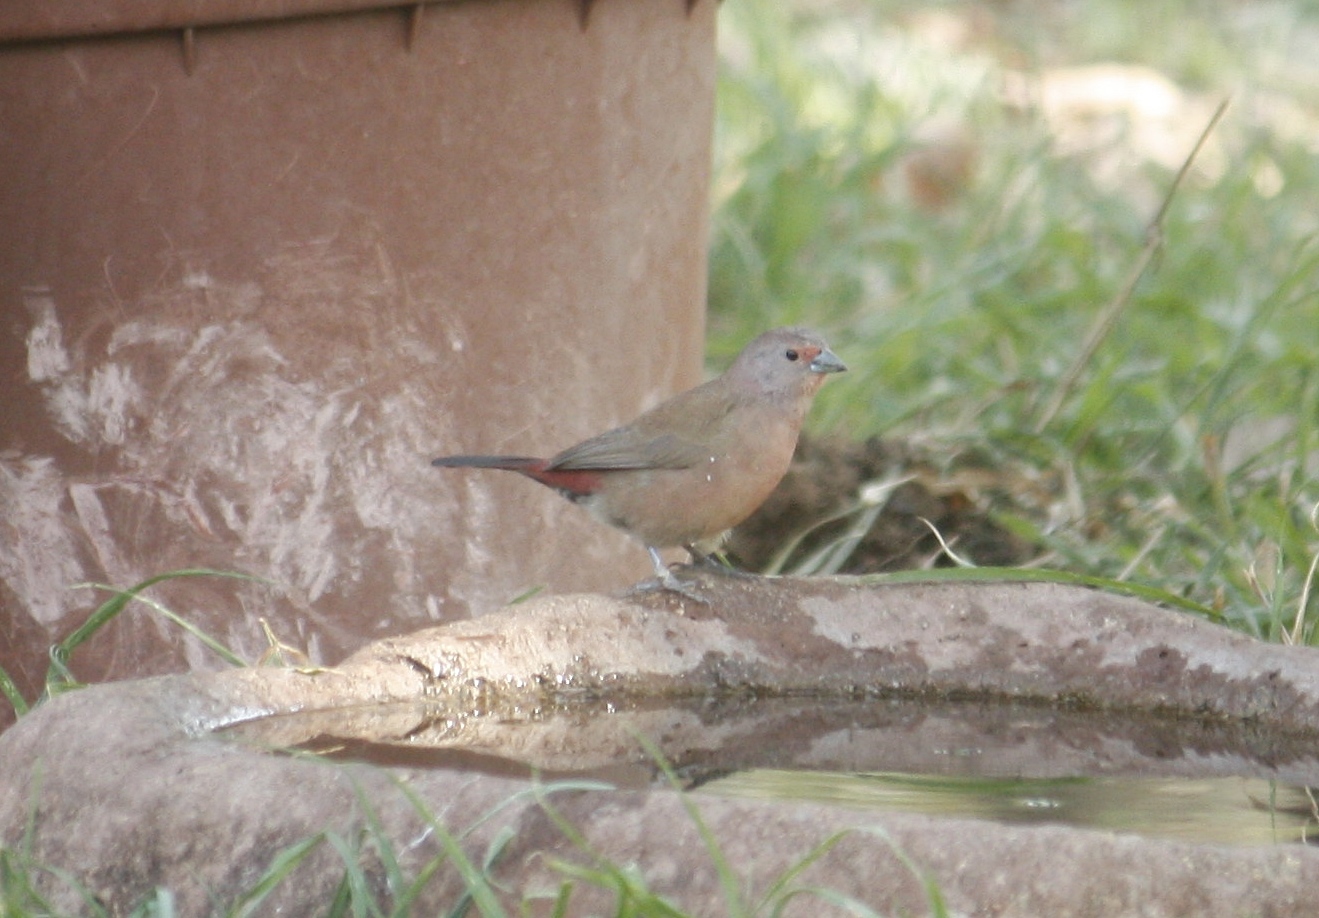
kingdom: Animalia
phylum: Chordata
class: Aves
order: Passeriformes
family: Estrildidae
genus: Lagonosticta
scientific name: Lagonosticta rubricata
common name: African firefinch
